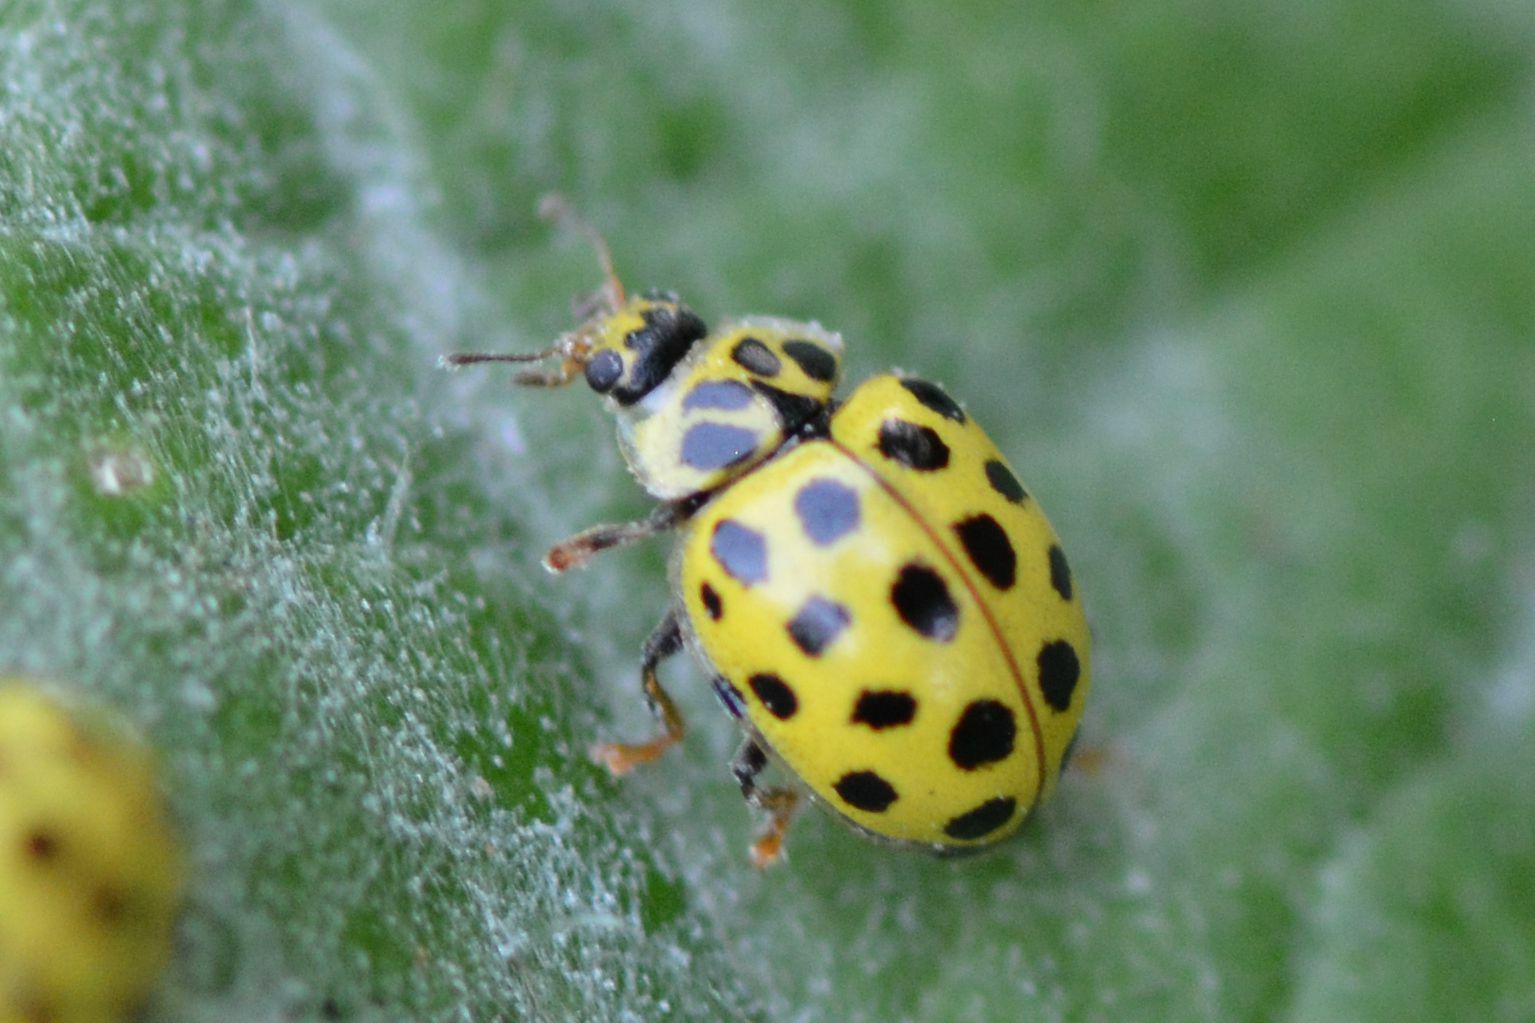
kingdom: Animalia
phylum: Arthropoda
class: Insecta
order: Coleoptera
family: Coccinellidae
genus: Psyllobora
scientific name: Psyllobora vigintiduopunctata
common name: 22-spot ladybird
